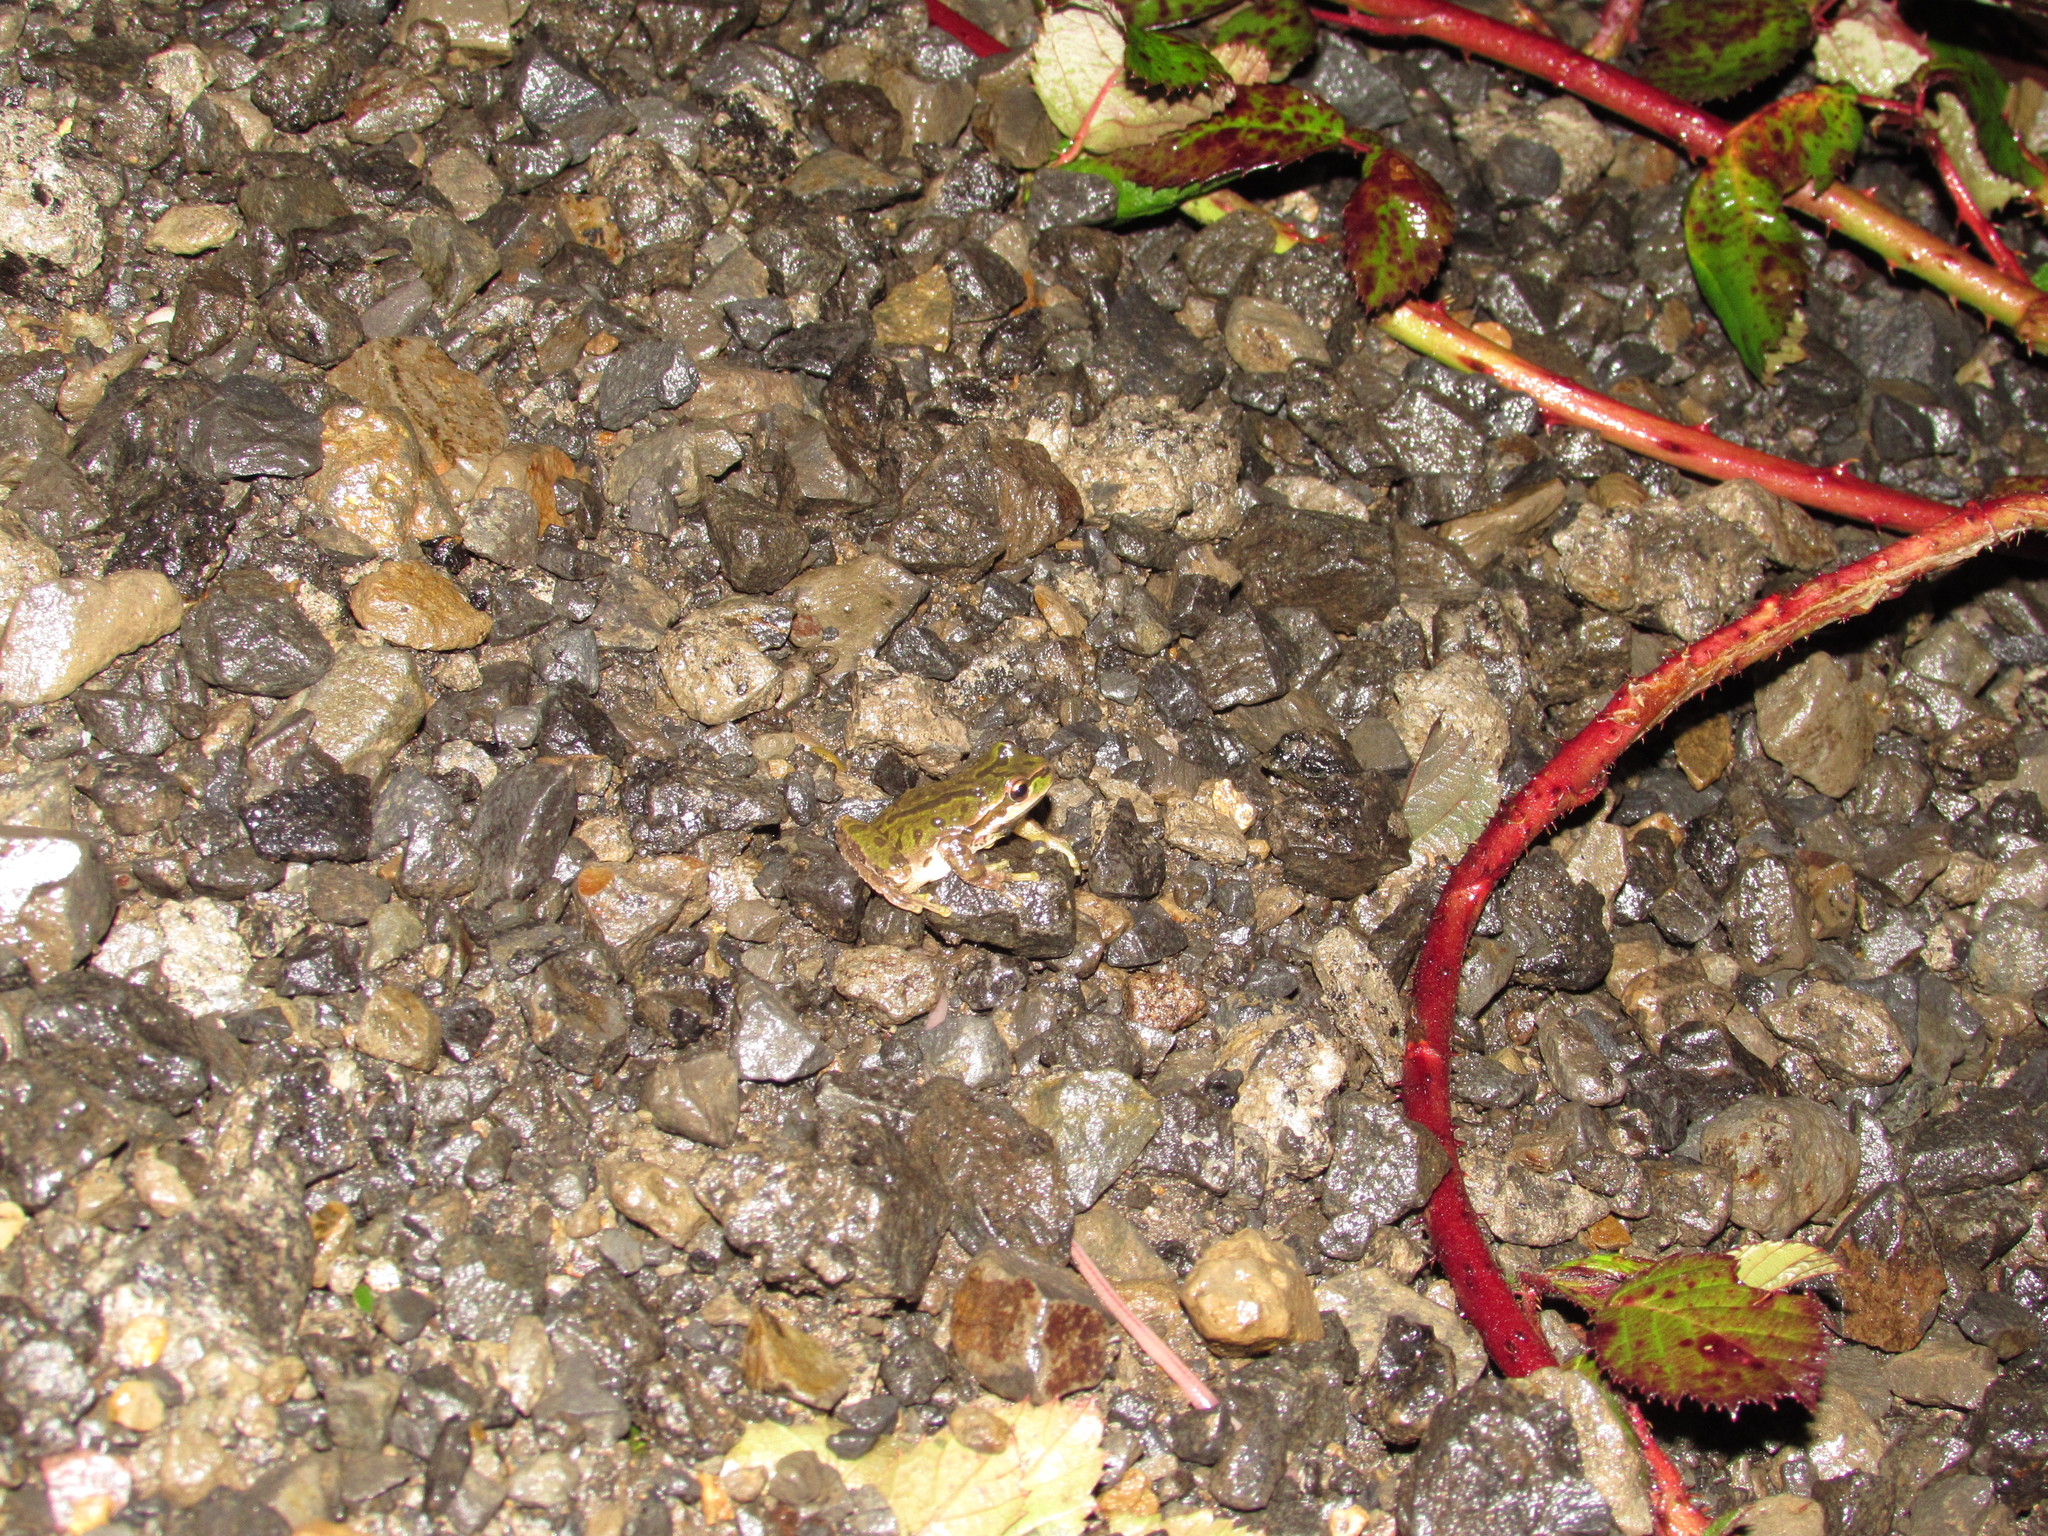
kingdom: Animalia
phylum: Chordata
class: Amphibia
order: Anura
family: Hylidae
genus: Pseudacris
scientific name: Pseudacris regilla
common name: Pacific chorus frog
